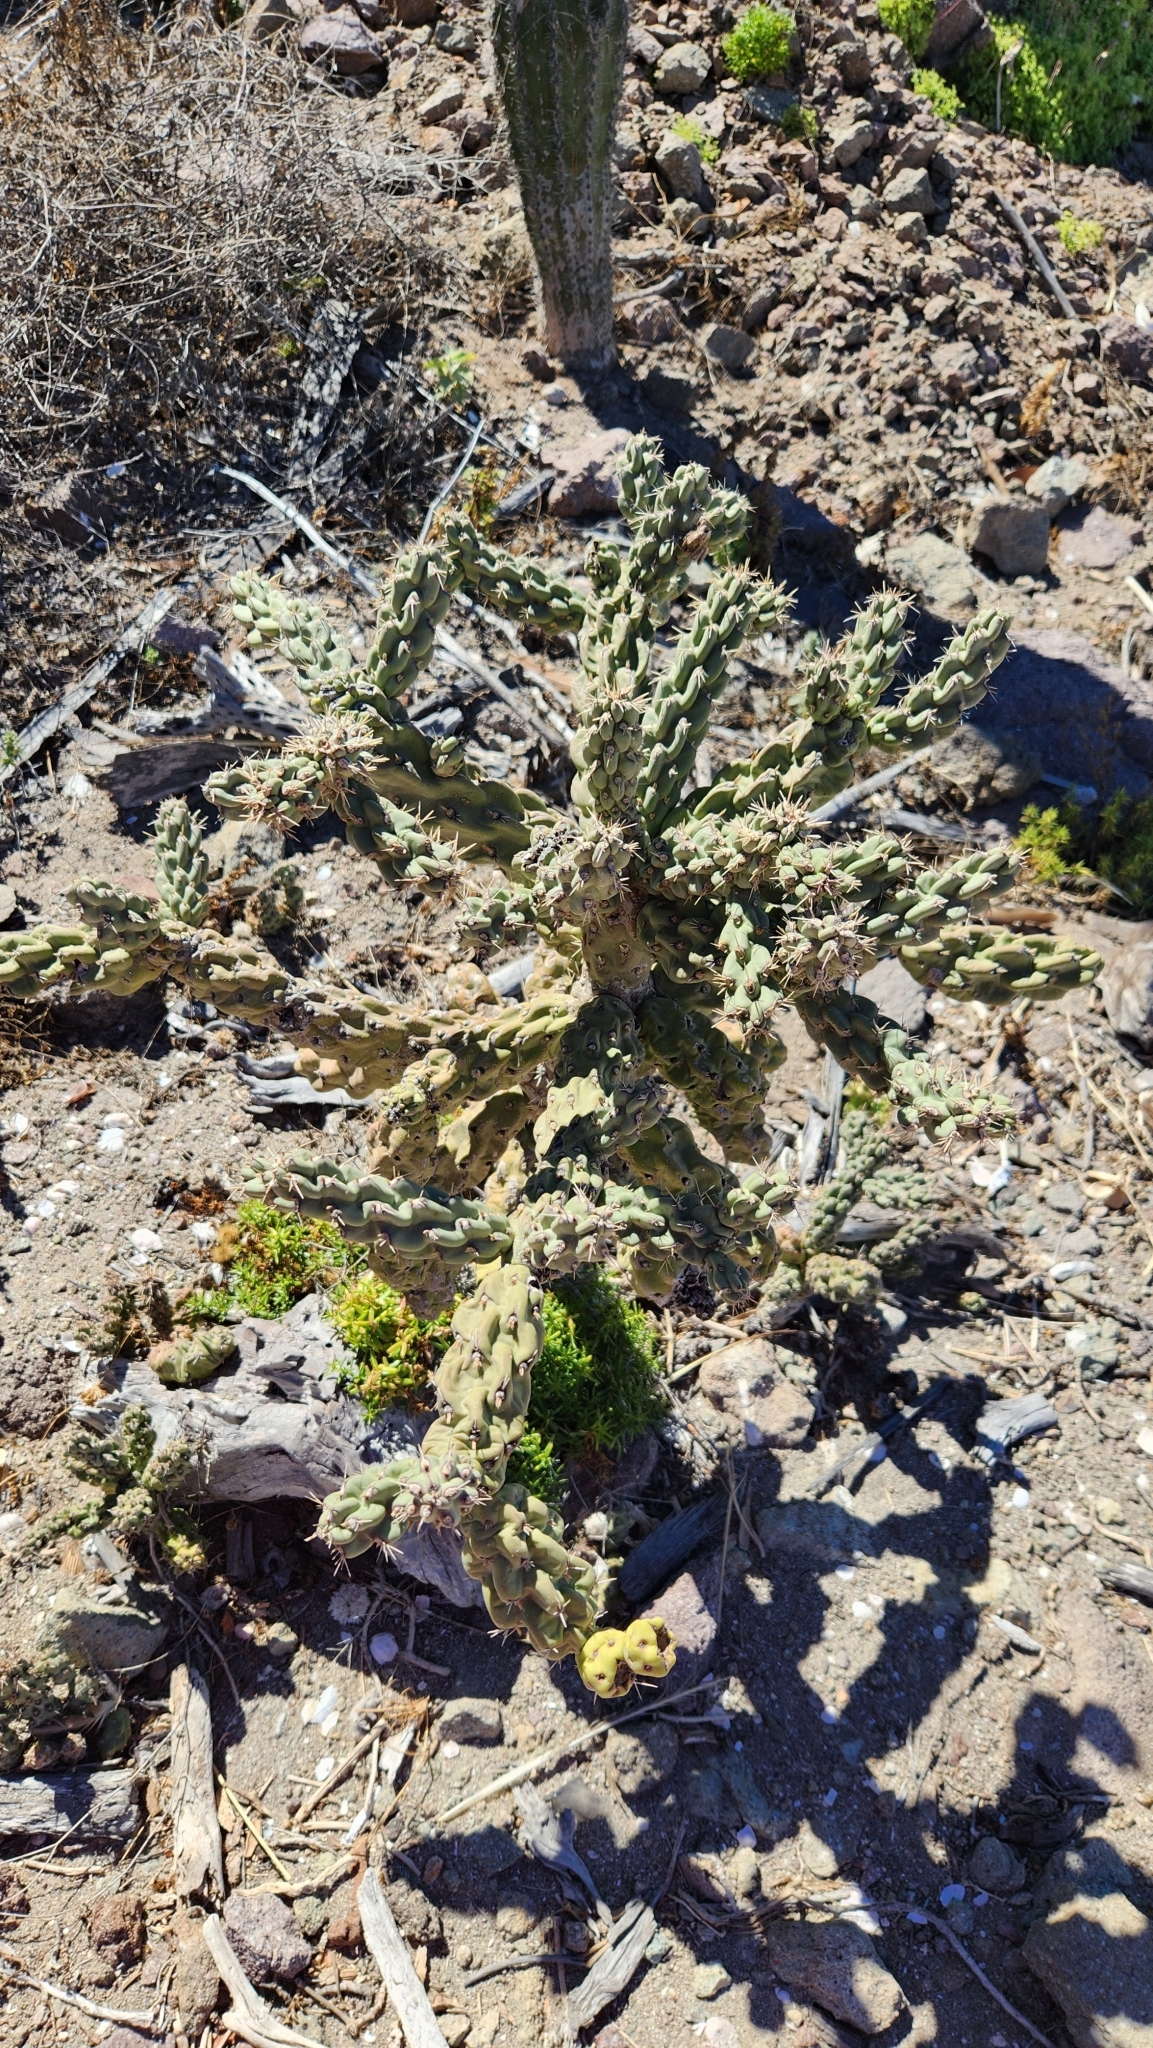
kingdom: Plantae
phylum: Tracheophyta
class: Magnoliopsida
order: Caryophyllales
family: Cactaceae
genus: Cylindropuntia
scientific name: Cylindropuntia cholla
